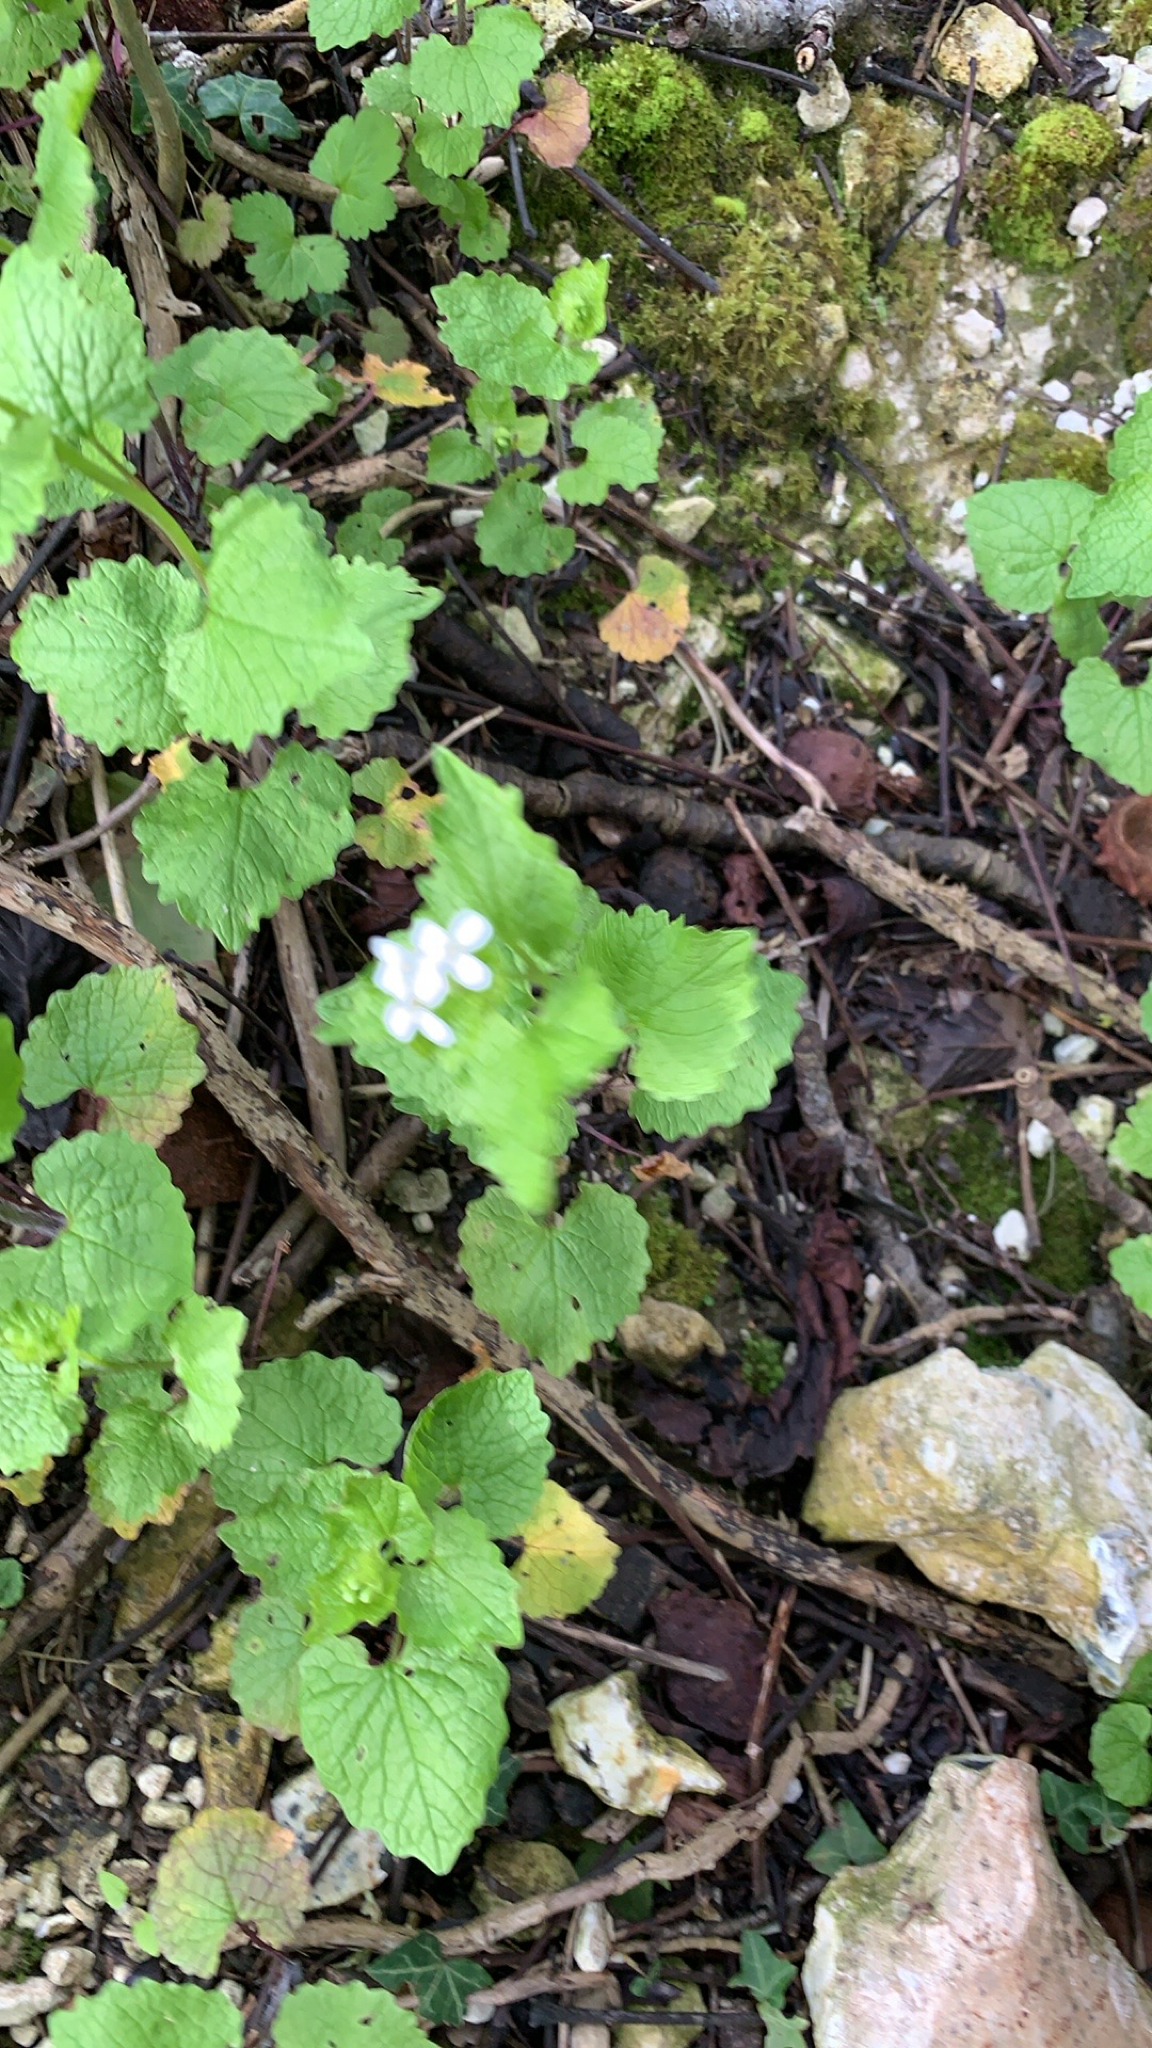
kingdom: Plantae
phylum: Tracheophyta
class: Magnoliopsida
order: Brassicales
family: Brassicaceae
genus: Alliaria
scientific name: Alliaria petiolata
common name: Garlic mustard
